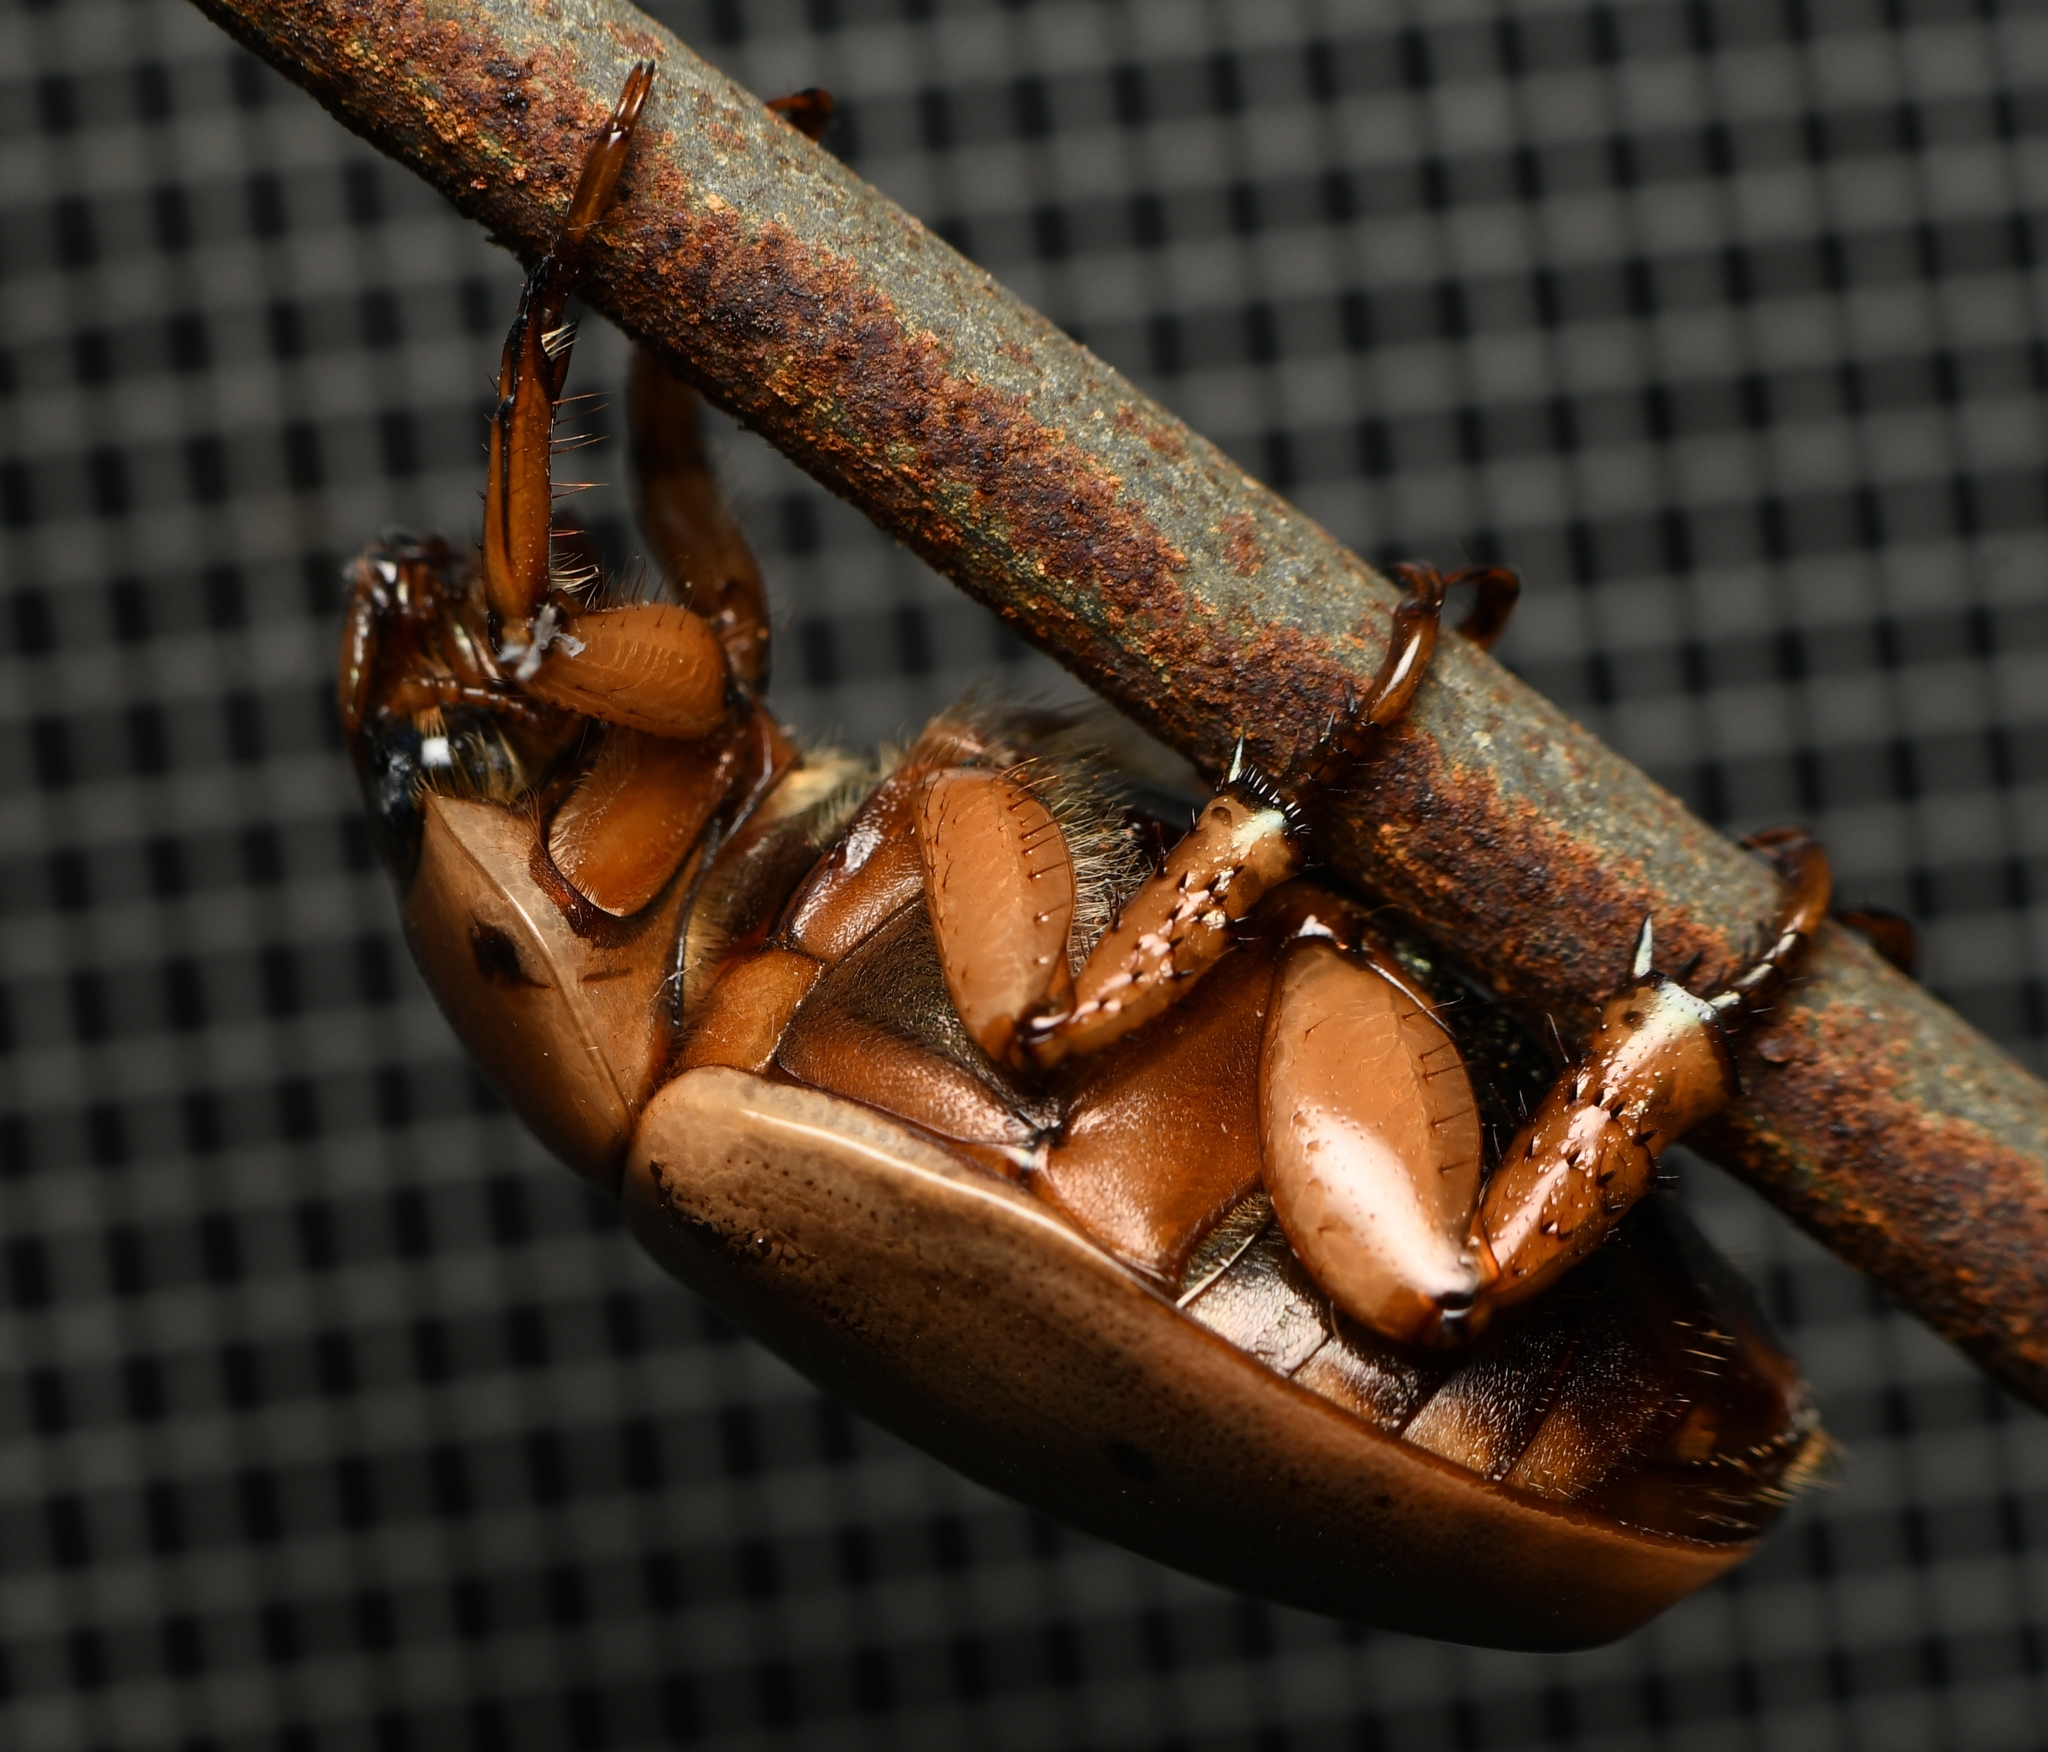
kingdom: Animalia
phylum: Arthropoda
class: Insecta
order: Coleoptera
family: Scarabaeidae
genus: Pelidnota
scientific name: Pelidnota punctata
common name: Grapevine beetle
